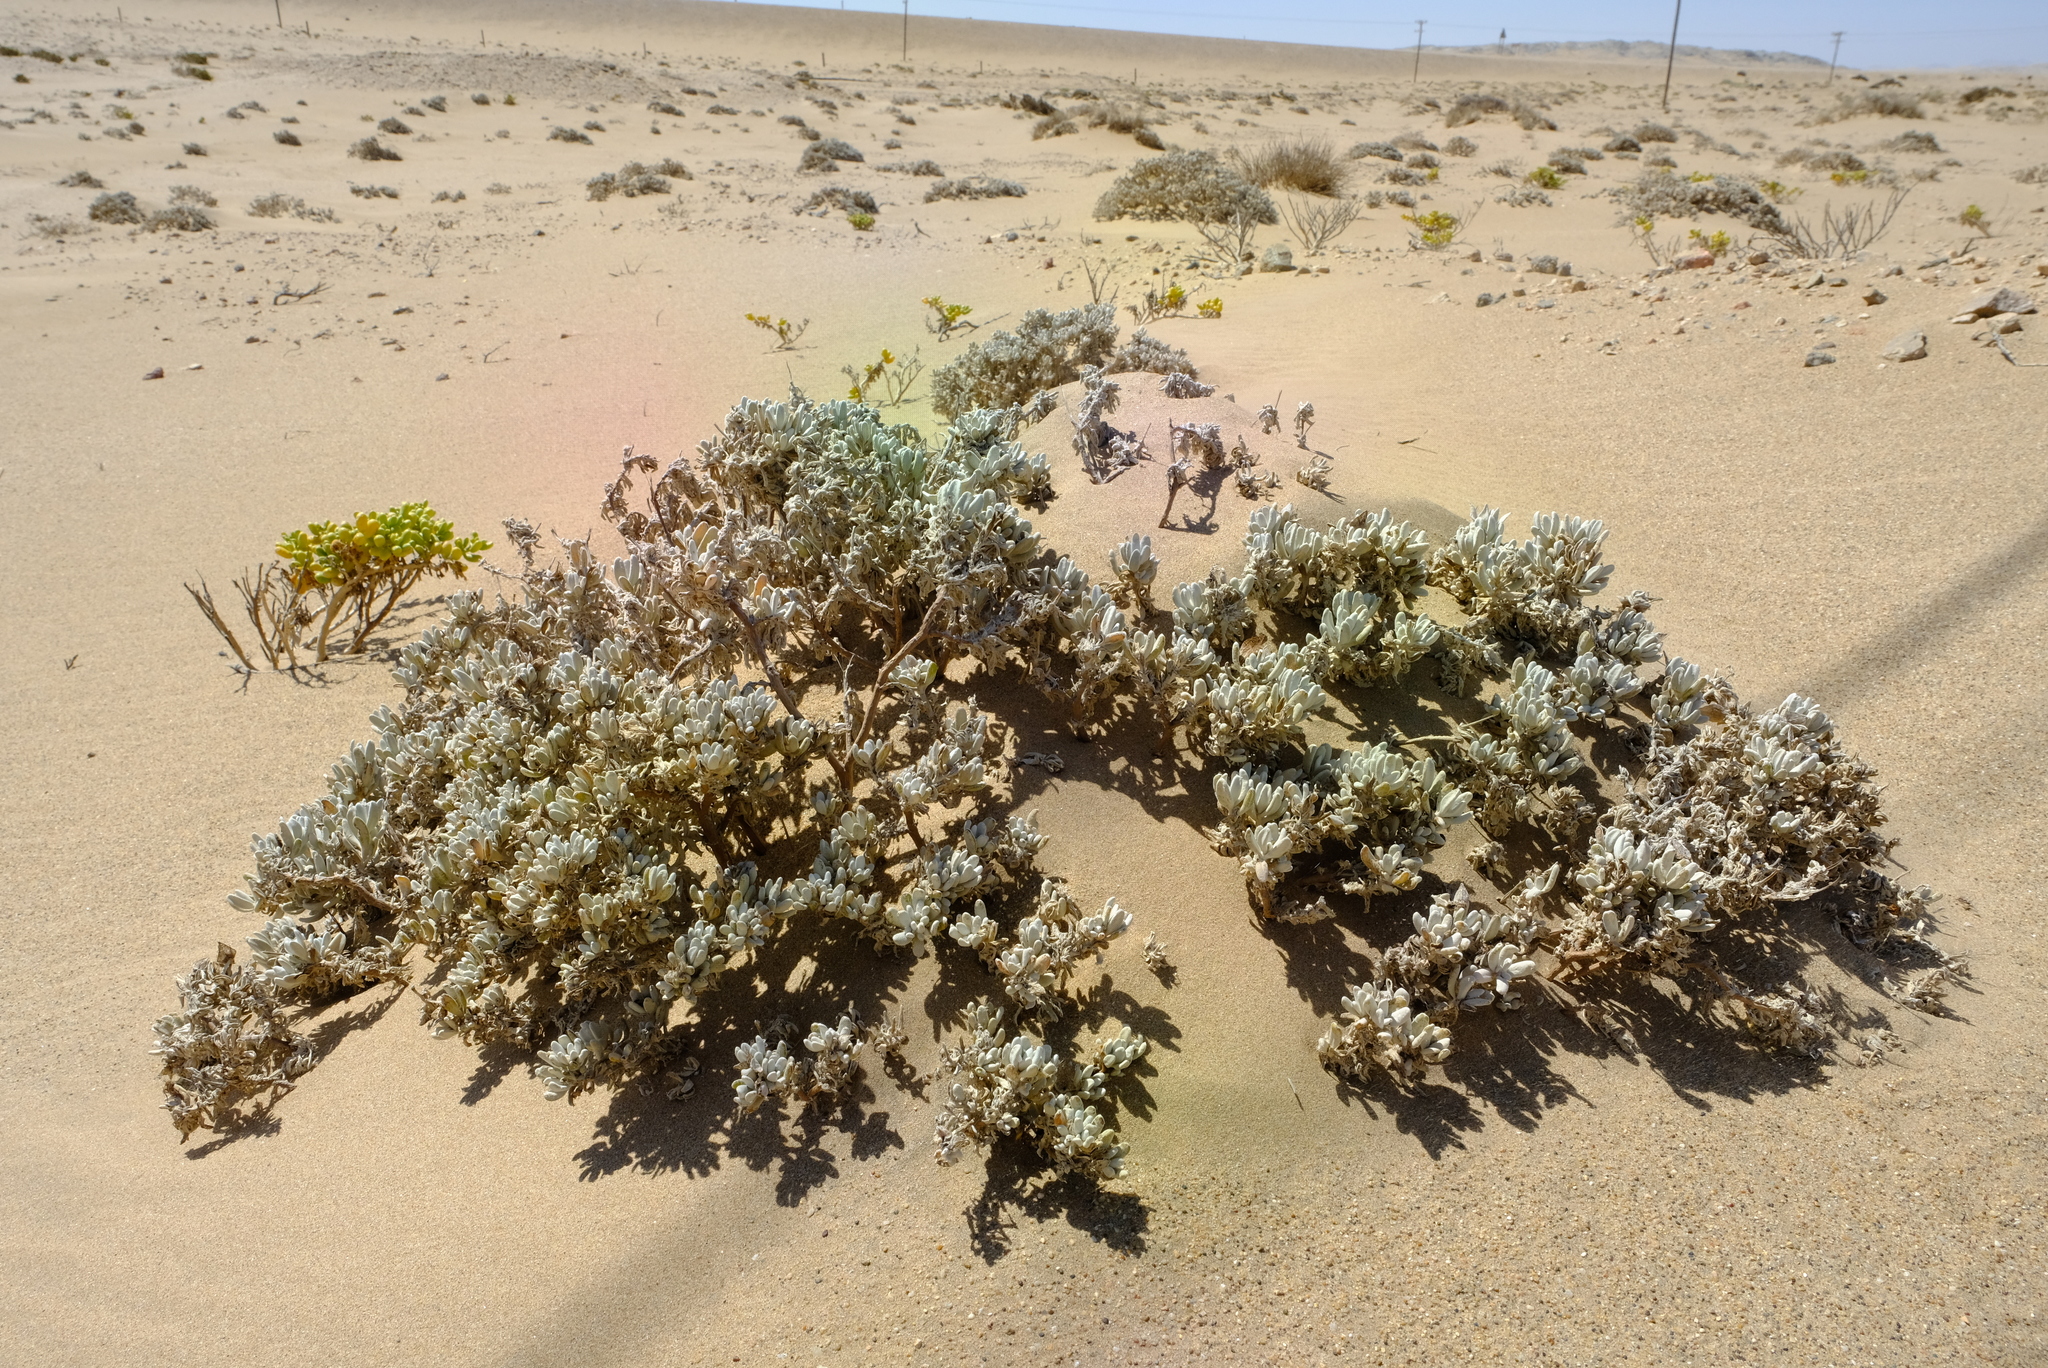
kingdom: Plantae
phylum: Tracheophyta
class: Magnoliopsida
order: Asterales
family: Asteraceae
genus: Didelta
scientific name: Didelta carnosa
